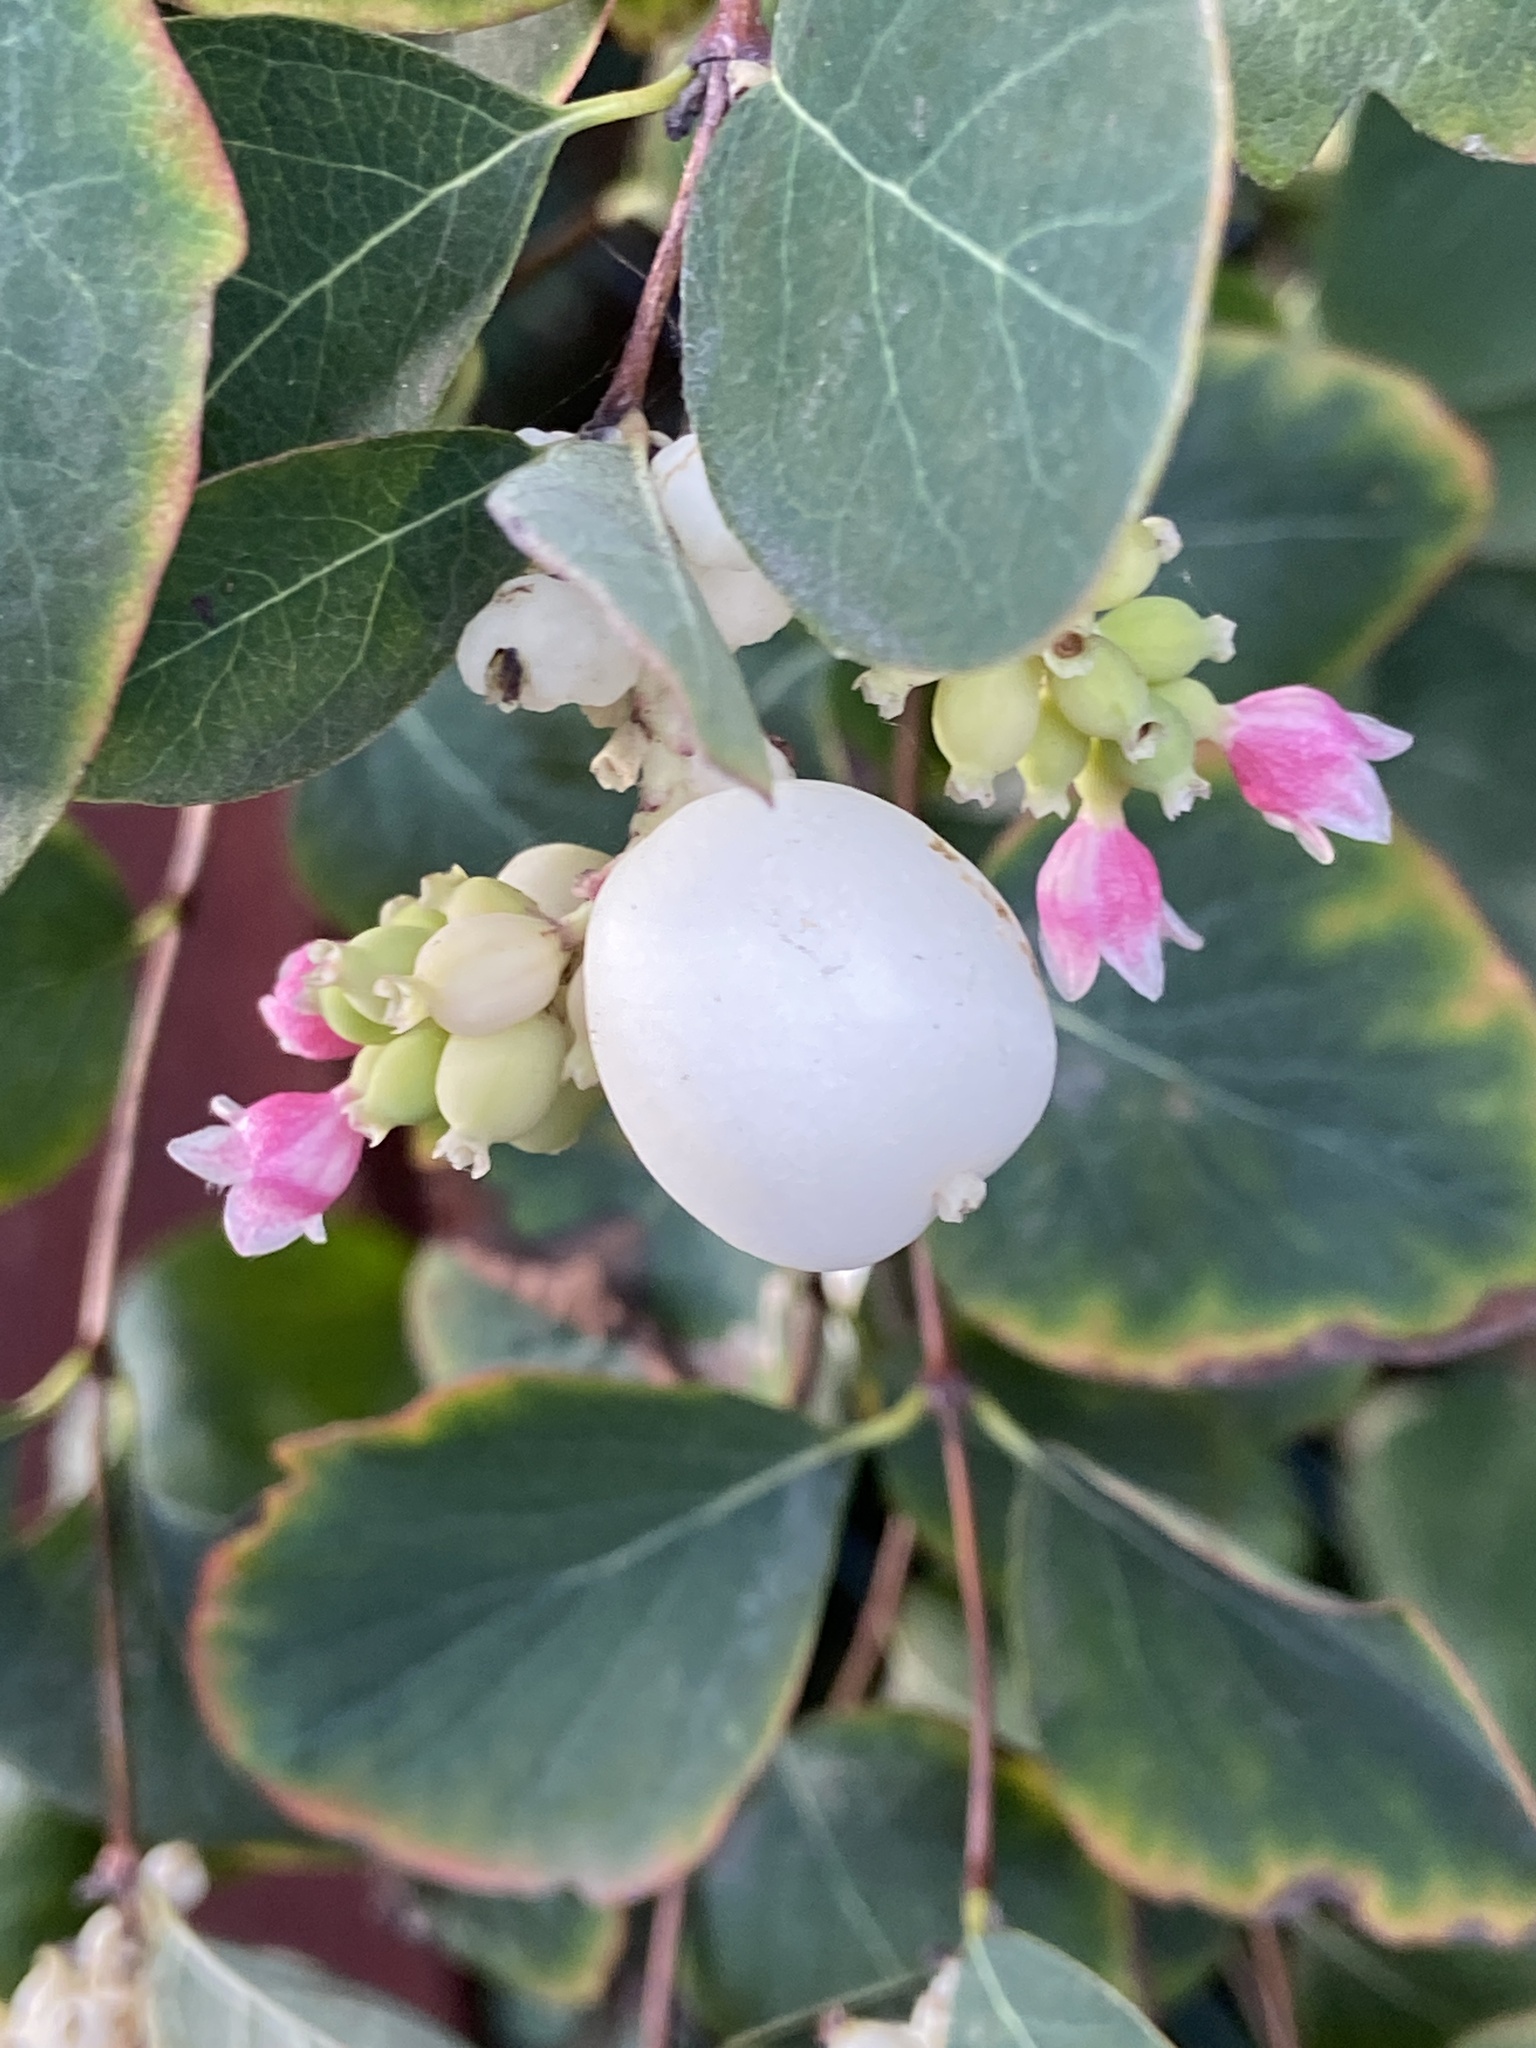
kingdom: Plantae
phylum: Tracheophyta
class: Magnoliopsida
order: Dipsacales
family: Caprifoliaceae
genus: Symphoricarpos
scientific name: Symphoricarpos albus
